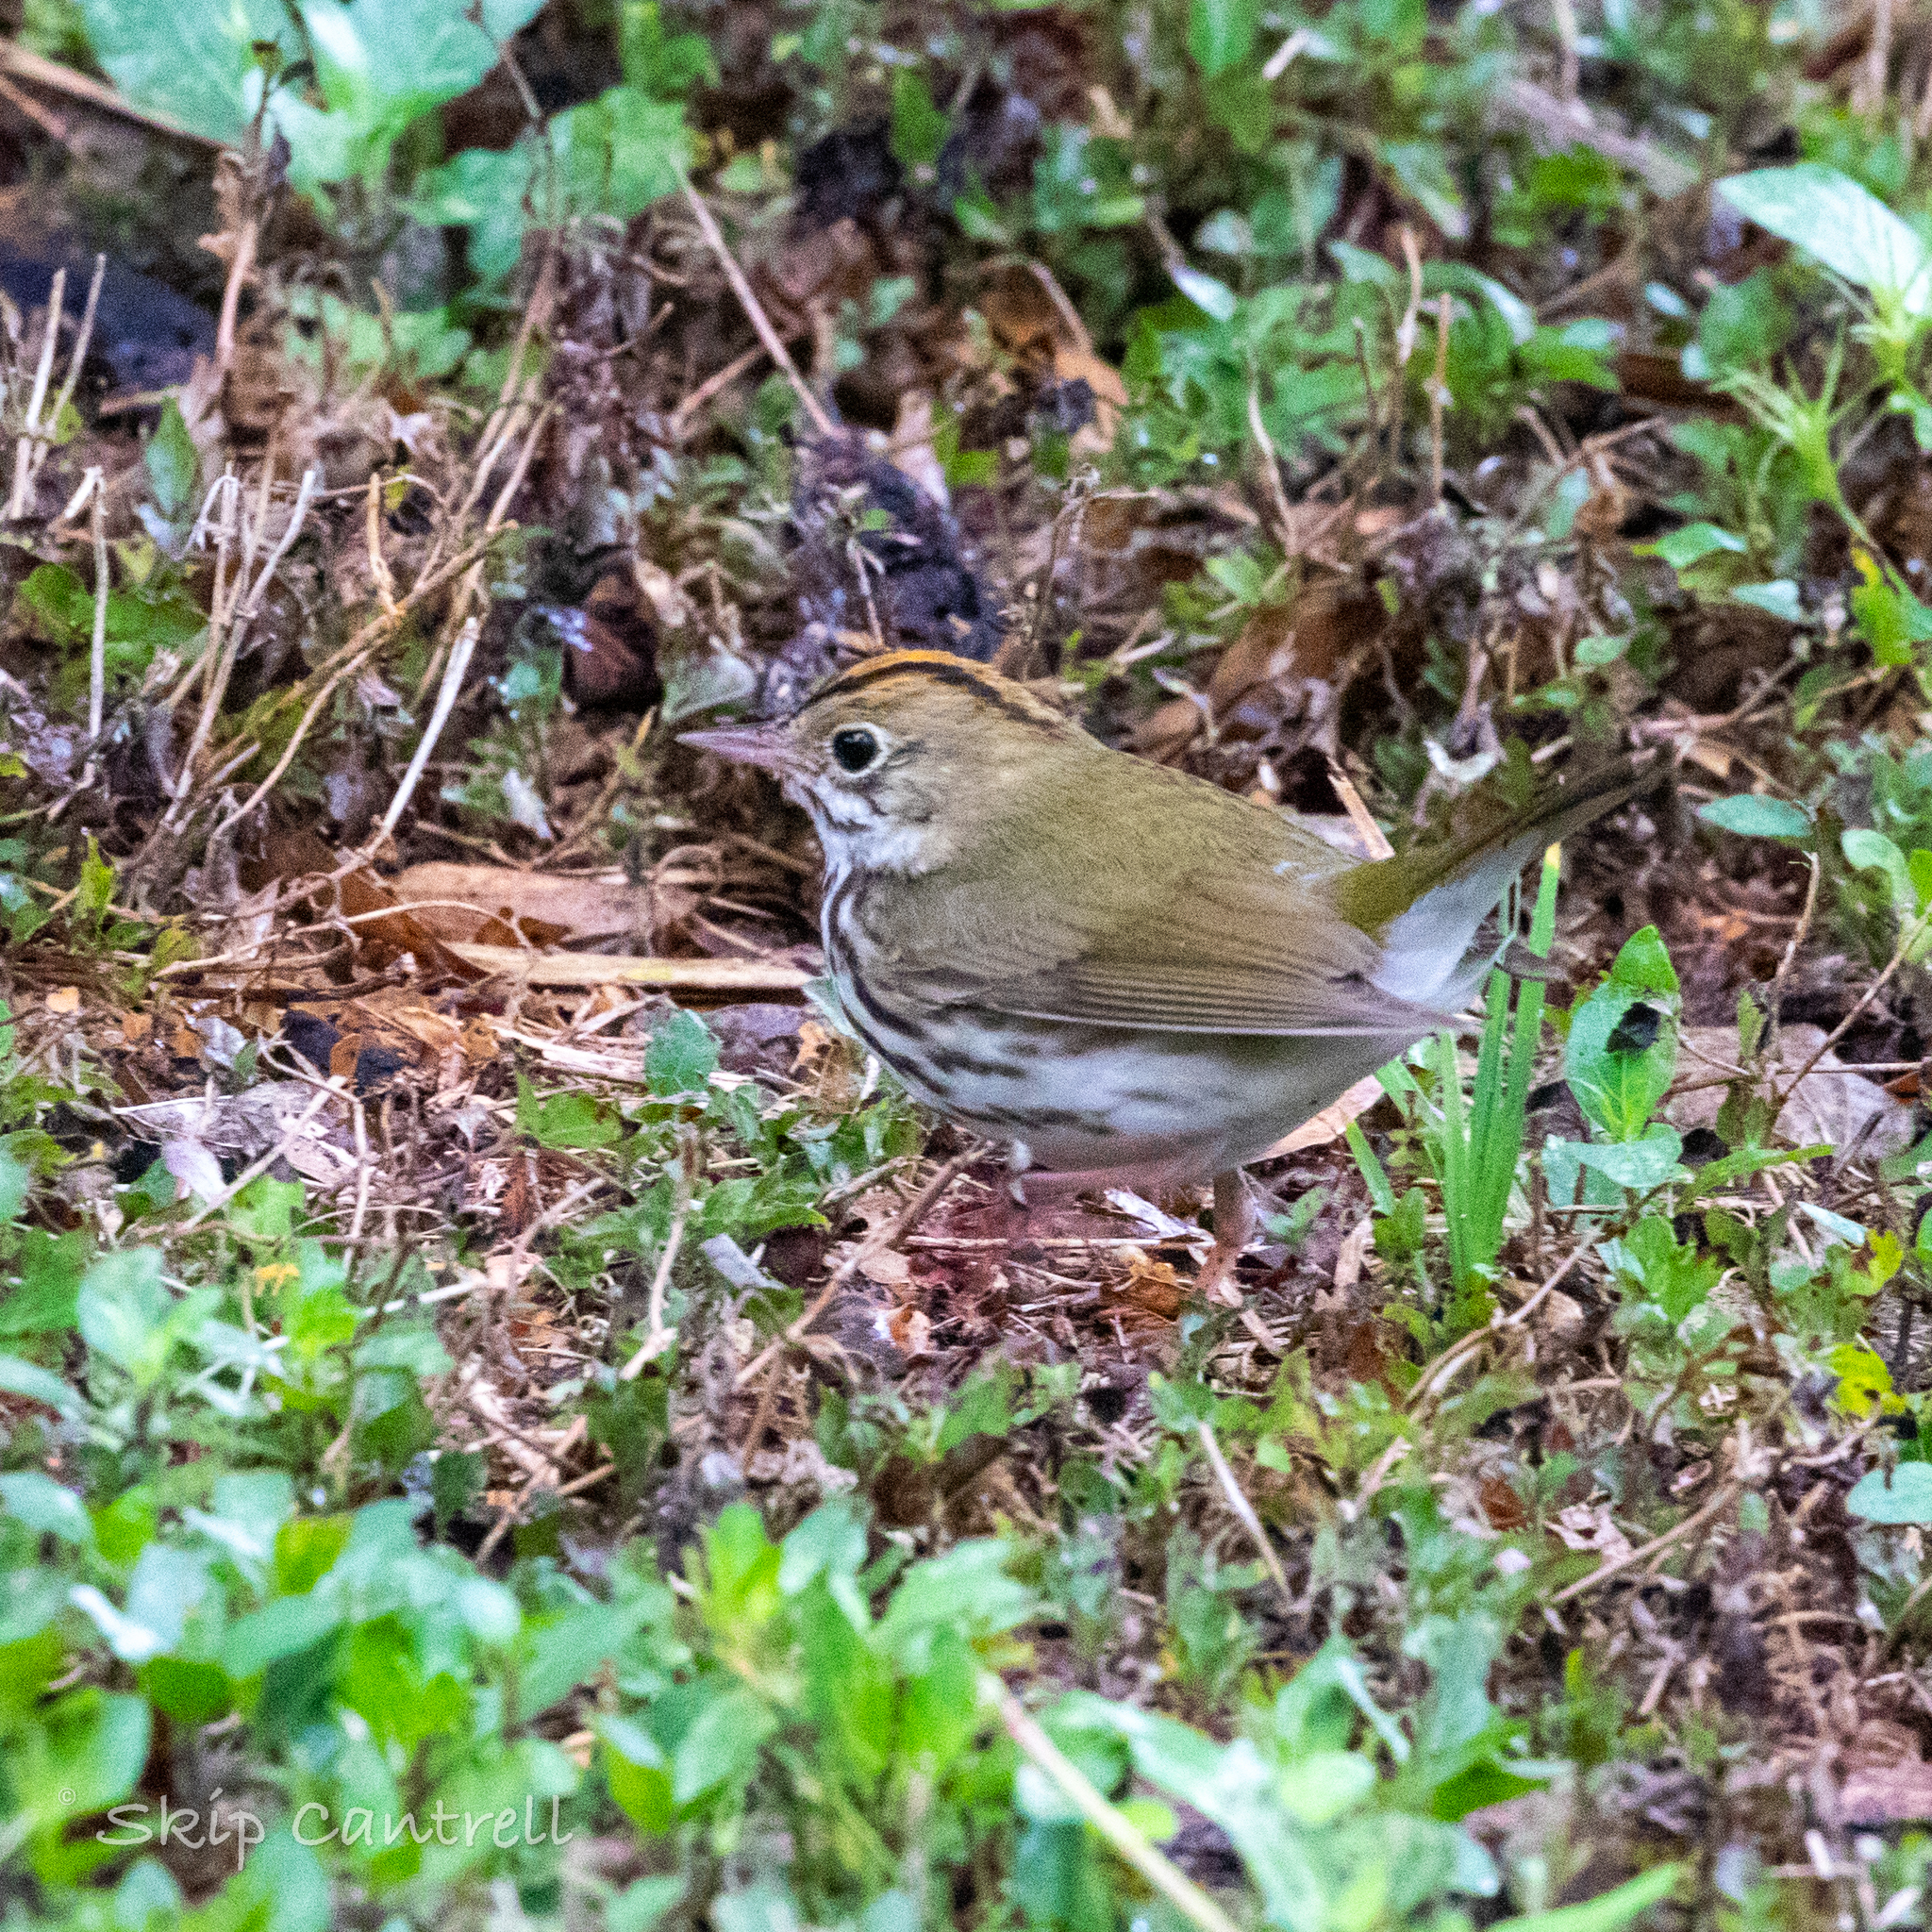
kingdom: Animalia
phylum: Chordata
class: Aves
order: Passeriformes
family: Parulidae
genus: Seiurus
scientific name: Seiurus aurocapilla
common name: Ovenbird
